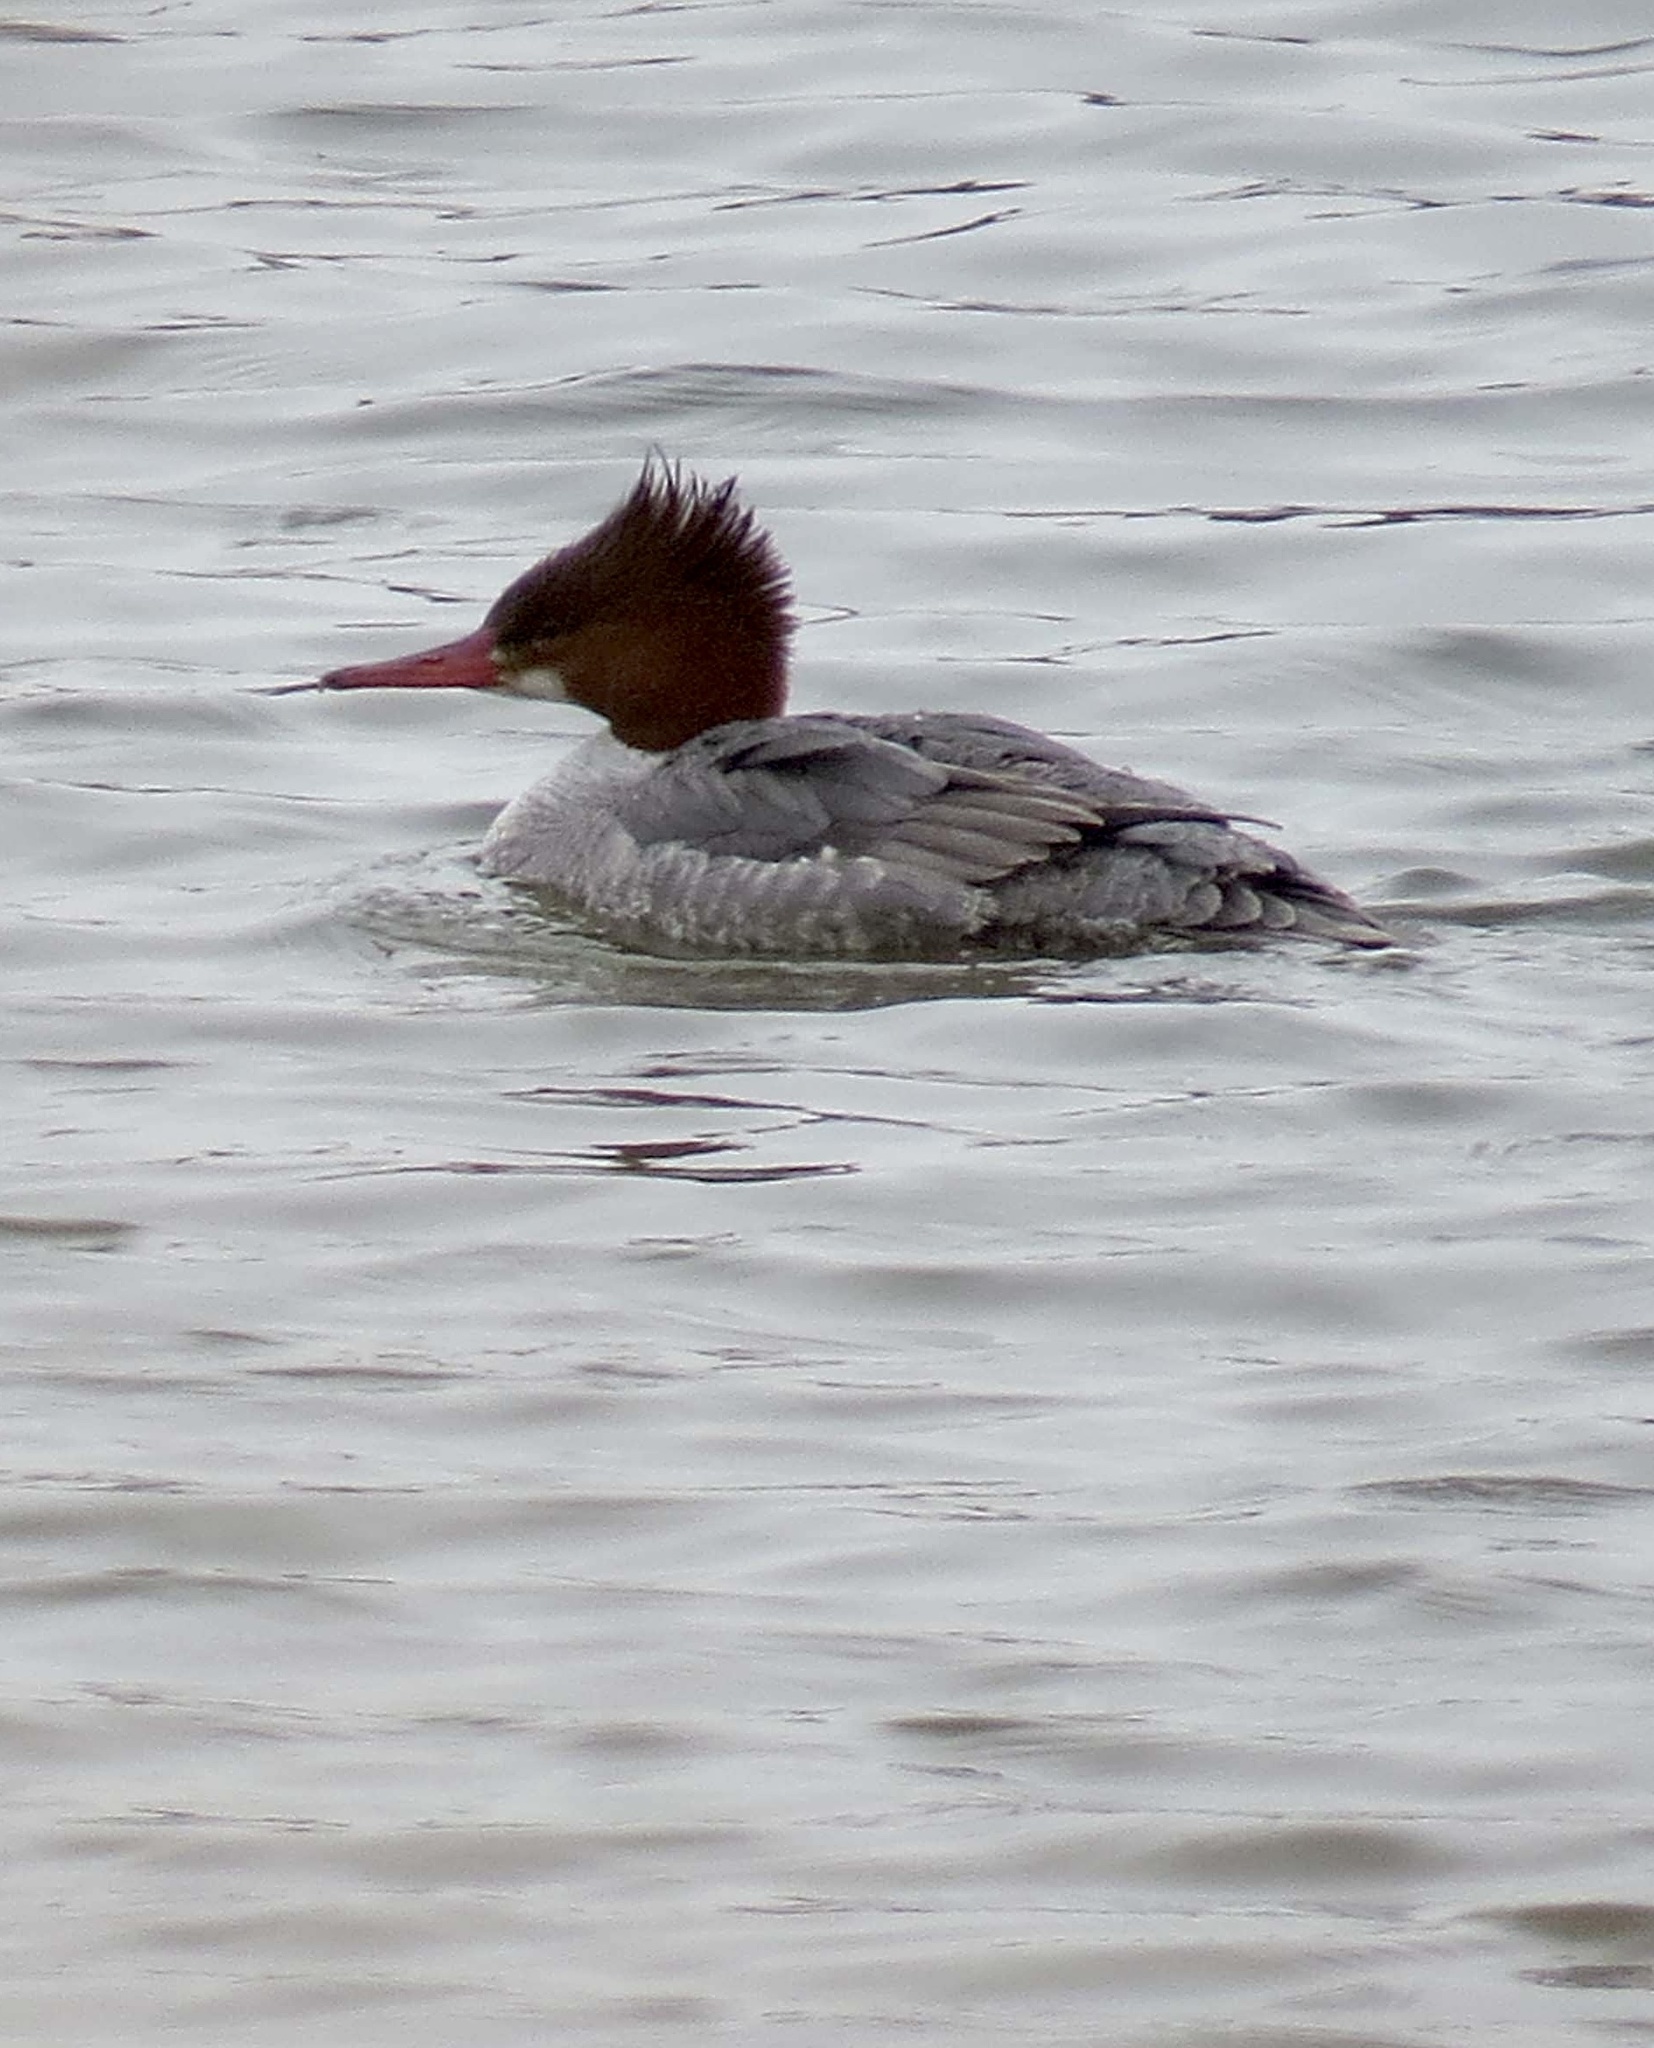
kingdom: Animalia
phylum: Chordata
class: Aves
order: Anseriformes
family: Anatidae
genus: Mergus
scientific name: Mergus merganser
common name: Common merganser
